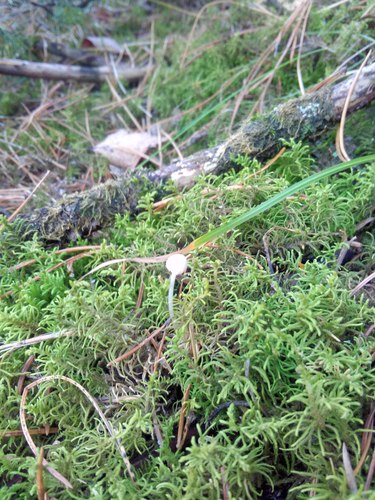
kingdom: Fungi
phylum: Basidiomycota
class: Agaricomycetes
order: Agaricales
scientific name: Agaricales
